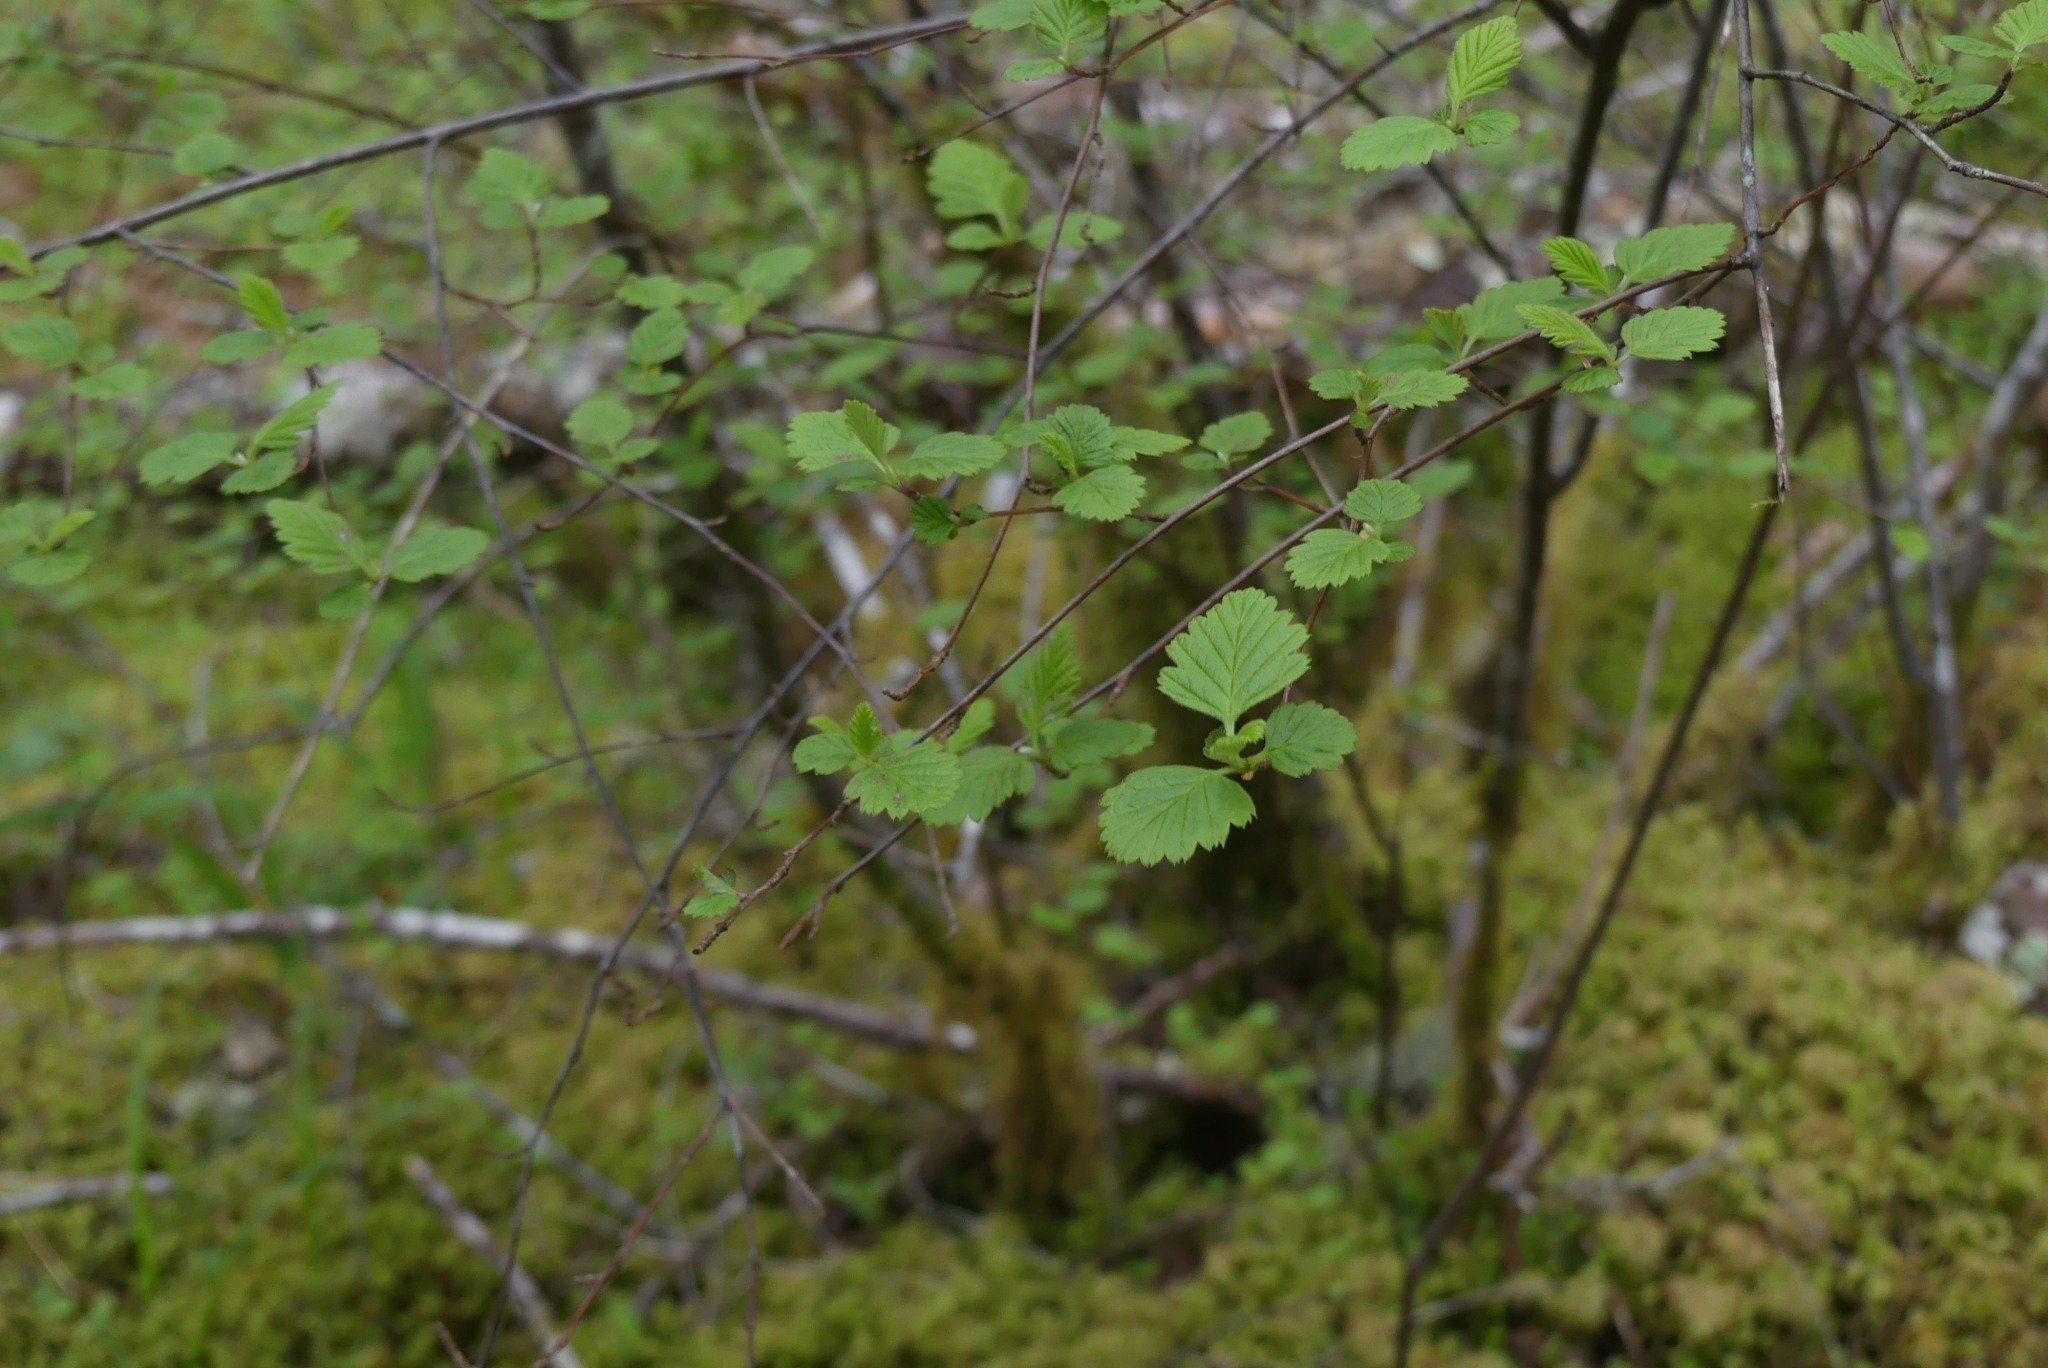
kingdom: Plantae
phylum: Tracheophyta
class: Magnoliopsida
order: Rosales
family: Rosaceae
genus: Holodiscus
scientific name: Holodiscus discolor
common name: Oceanspray
